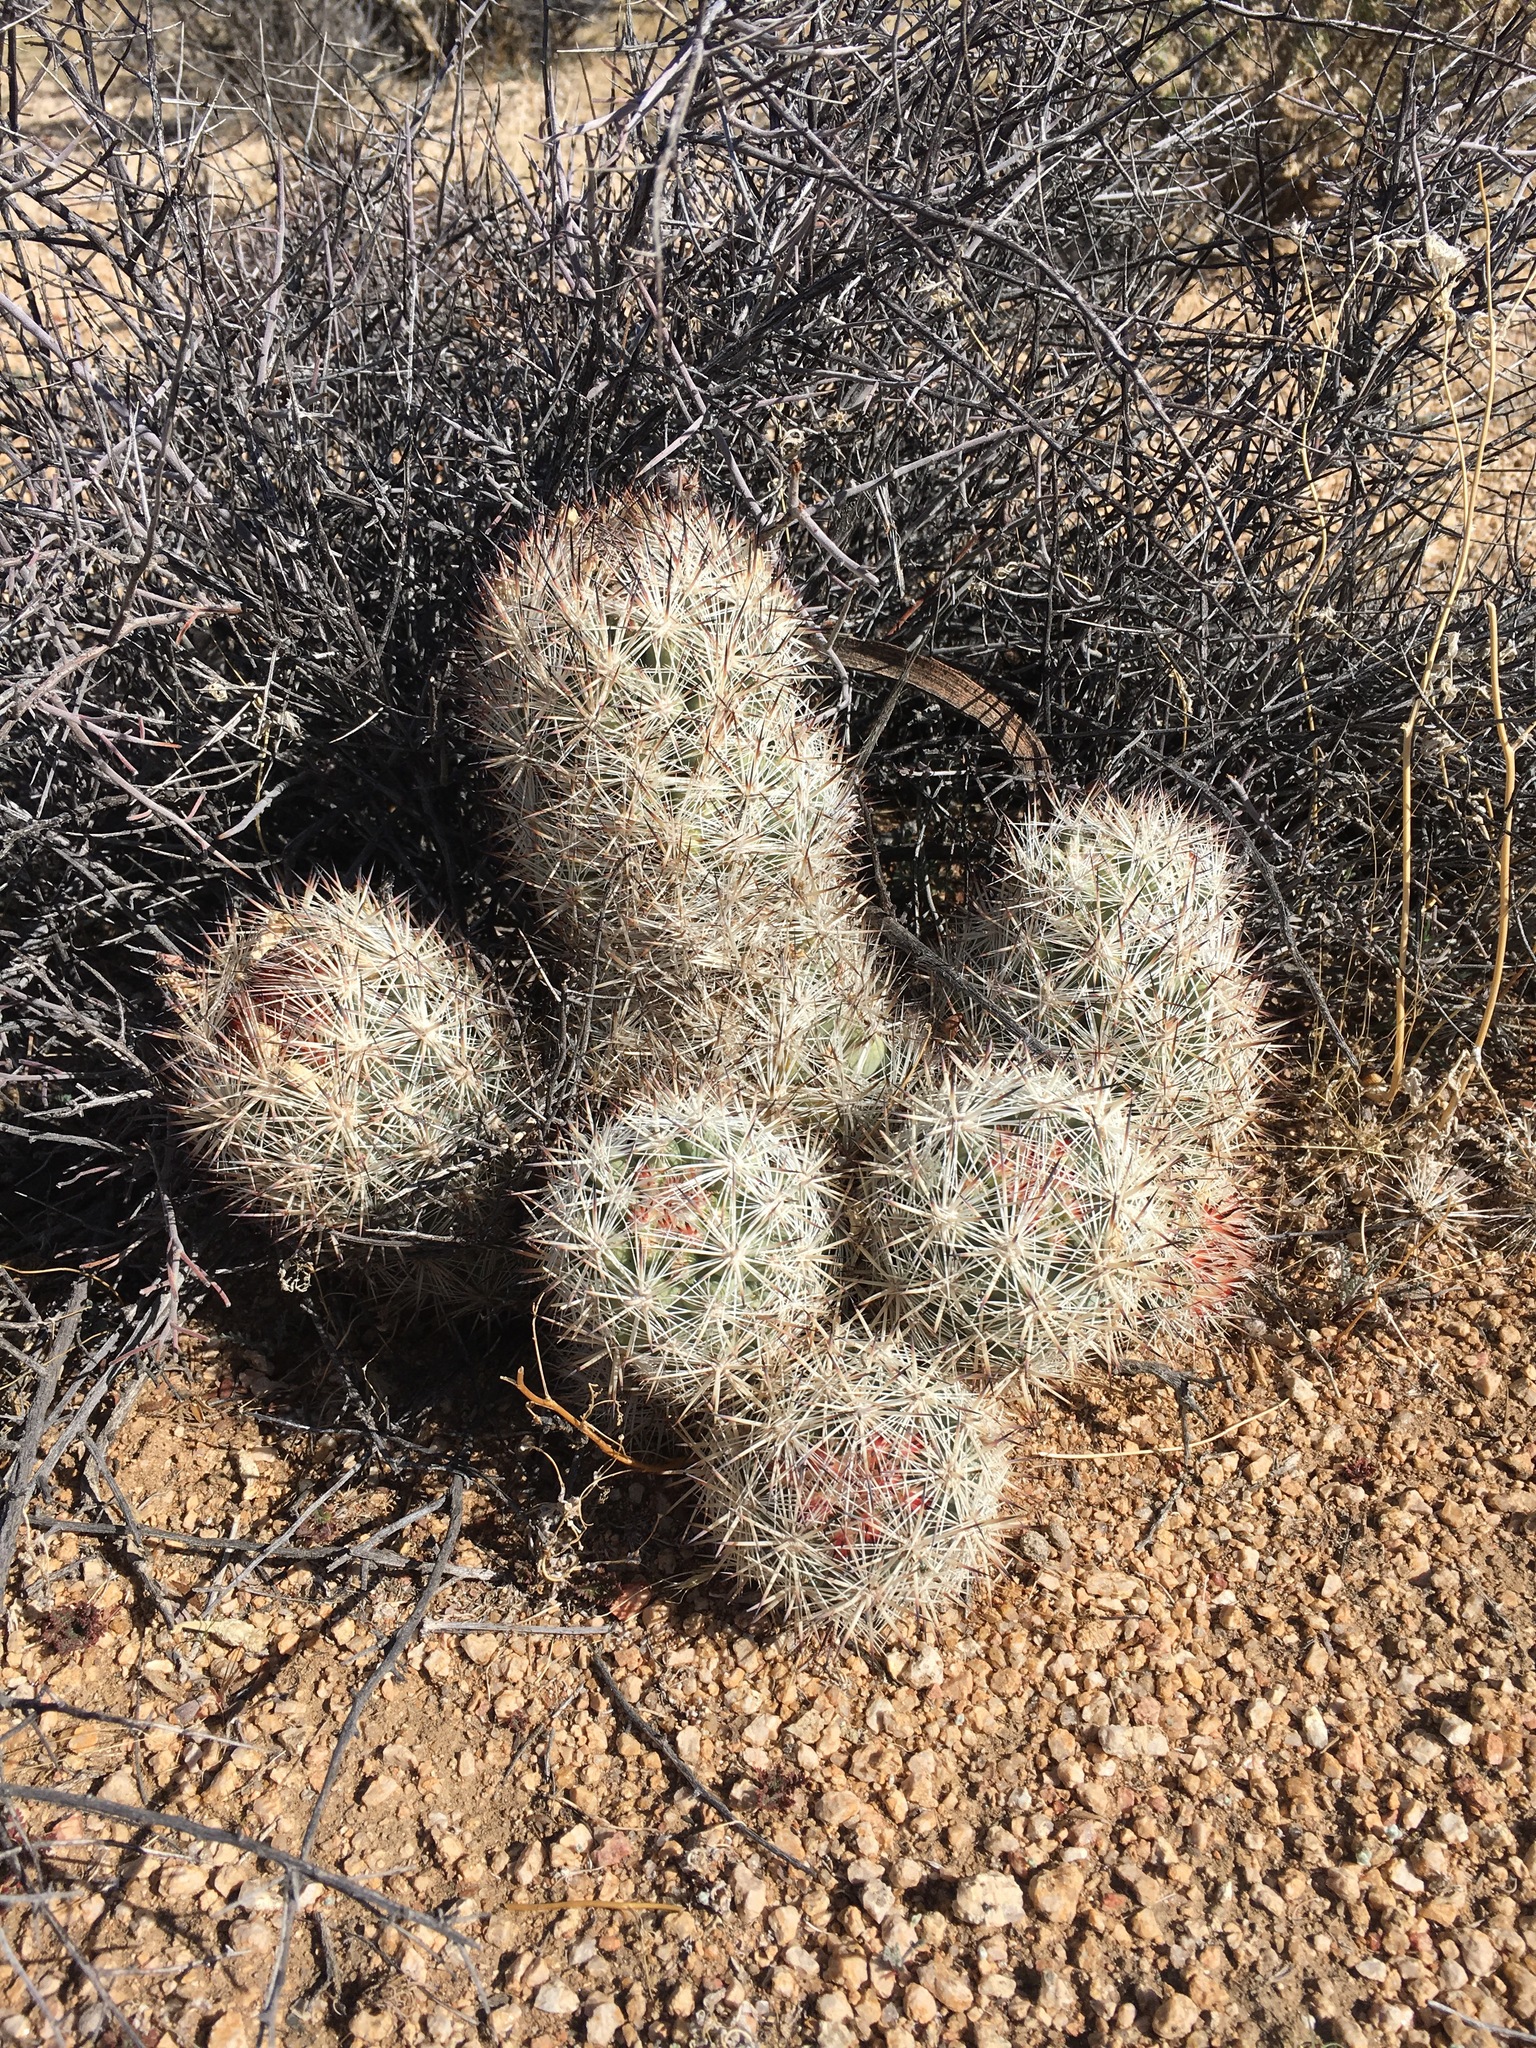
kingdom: Plantae
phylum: Tracheophyta
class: Magnoliopsida
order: Caryophyllales
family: Cactaceae
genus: Pelecyphora
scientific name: Pelecyphora alversonii
